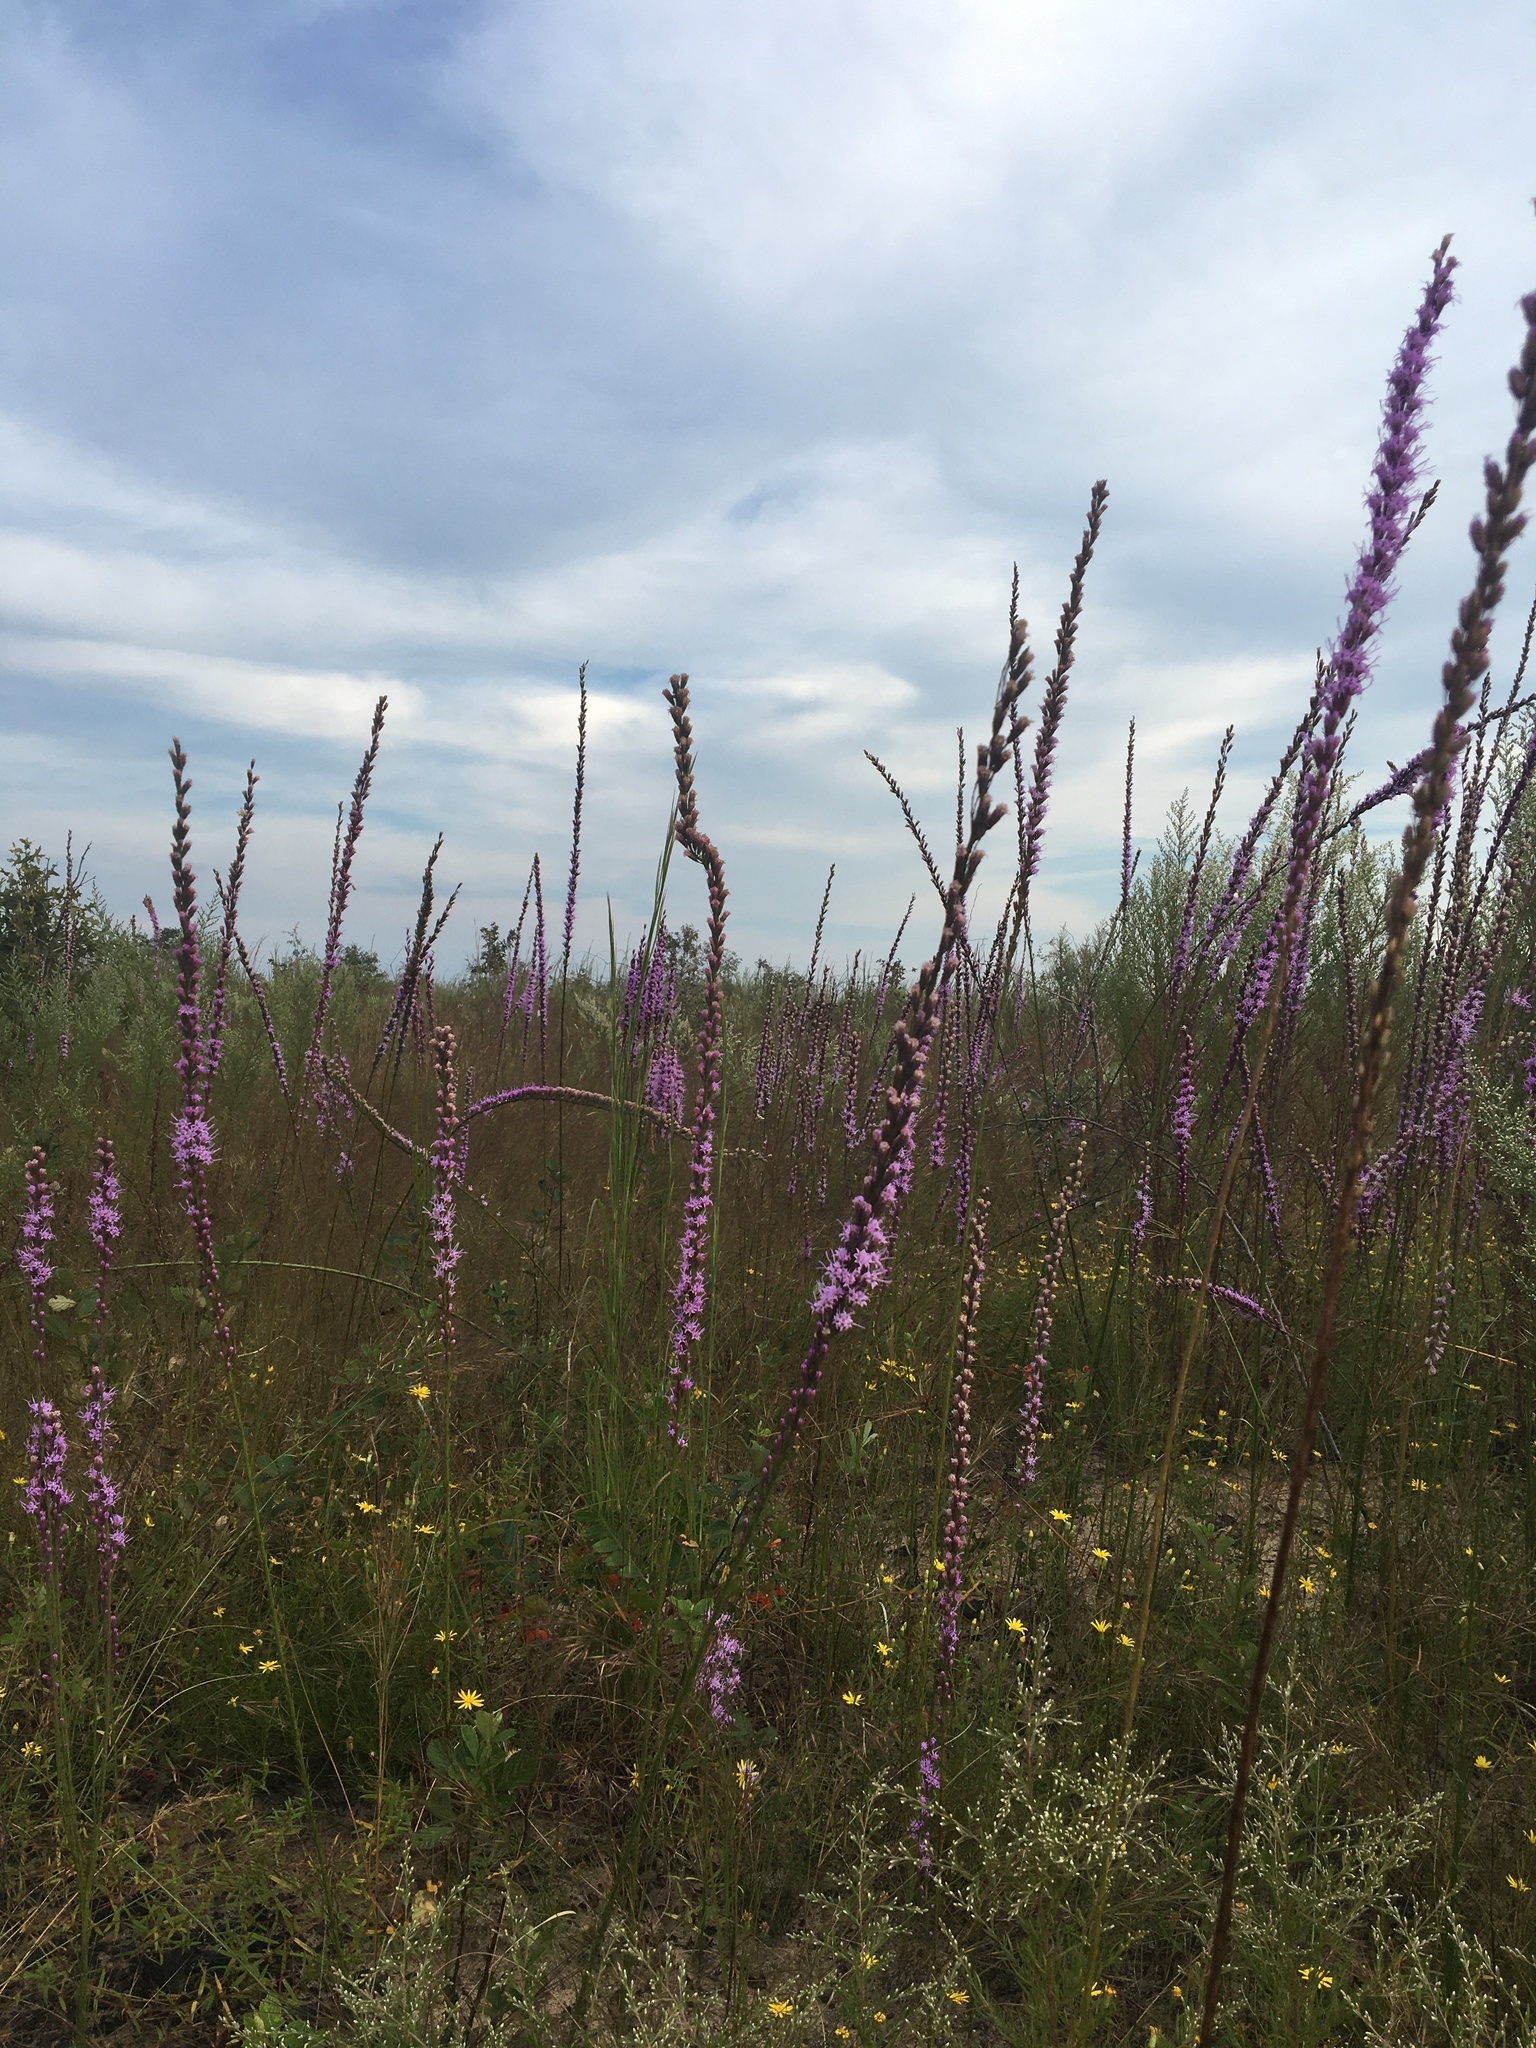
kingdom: Plantae
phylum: Tracheophyta
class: Magnoliopsida
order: Asterales
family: Asteraceae
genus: Liatris
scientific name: Liatris tenuifolia
